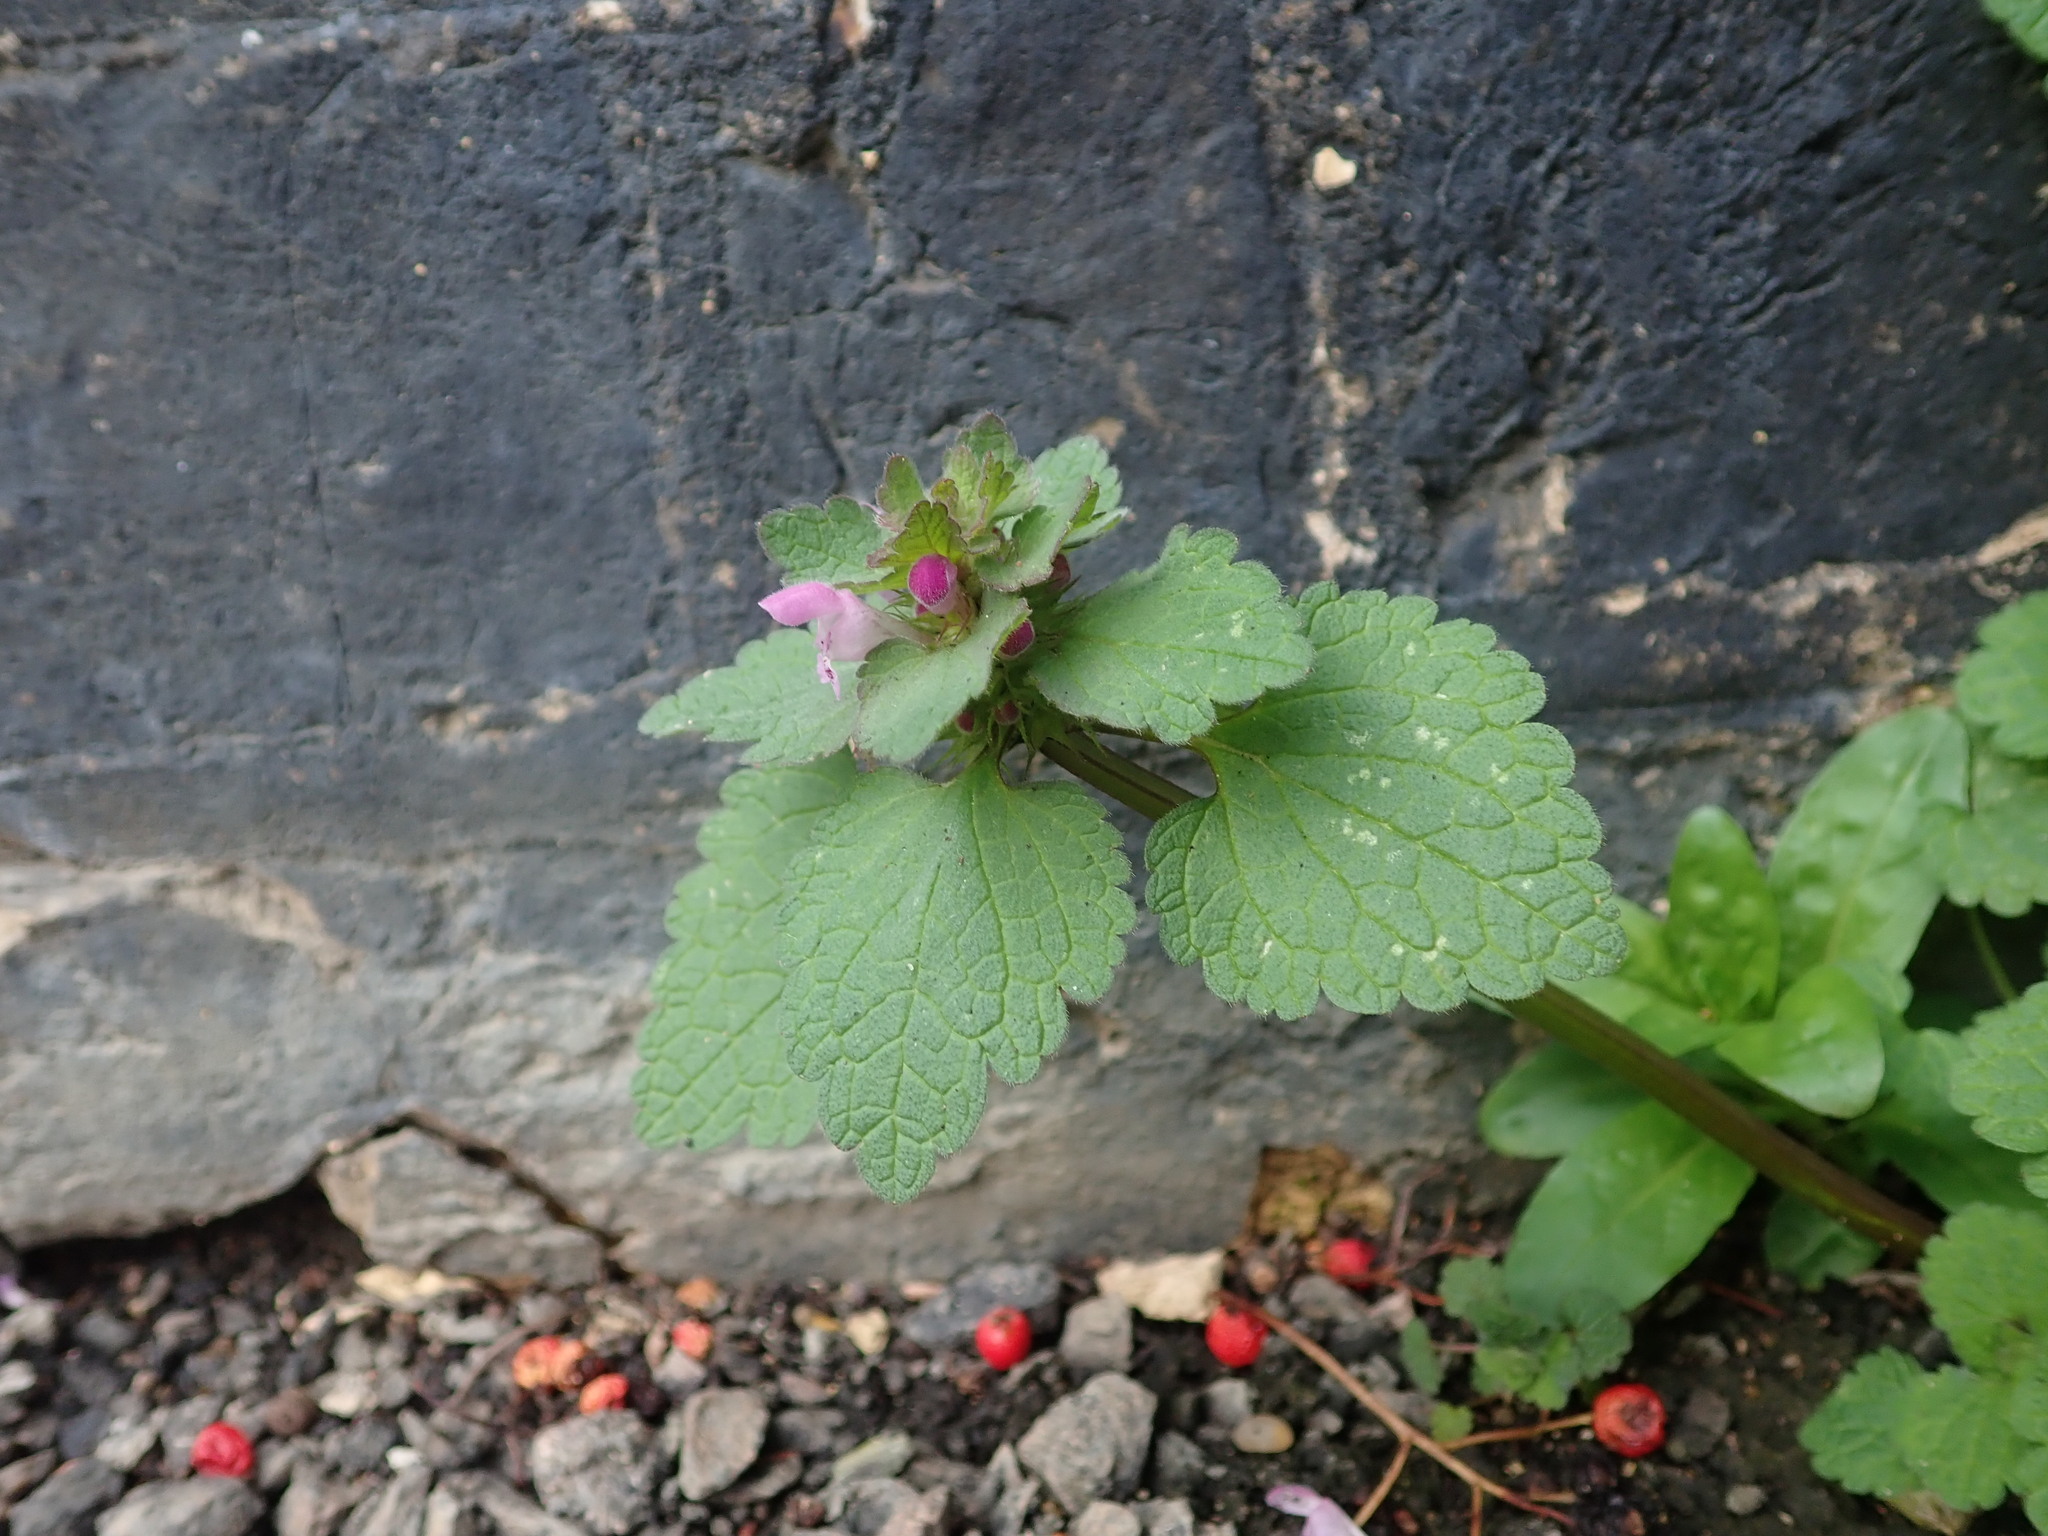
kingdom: Plantae
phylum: Tracheophyta
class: Magnoliopsida
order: Lamiales
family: Lamiaceae
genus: Lamium
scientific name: Lamium purpureum
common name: Red dead-nettle
